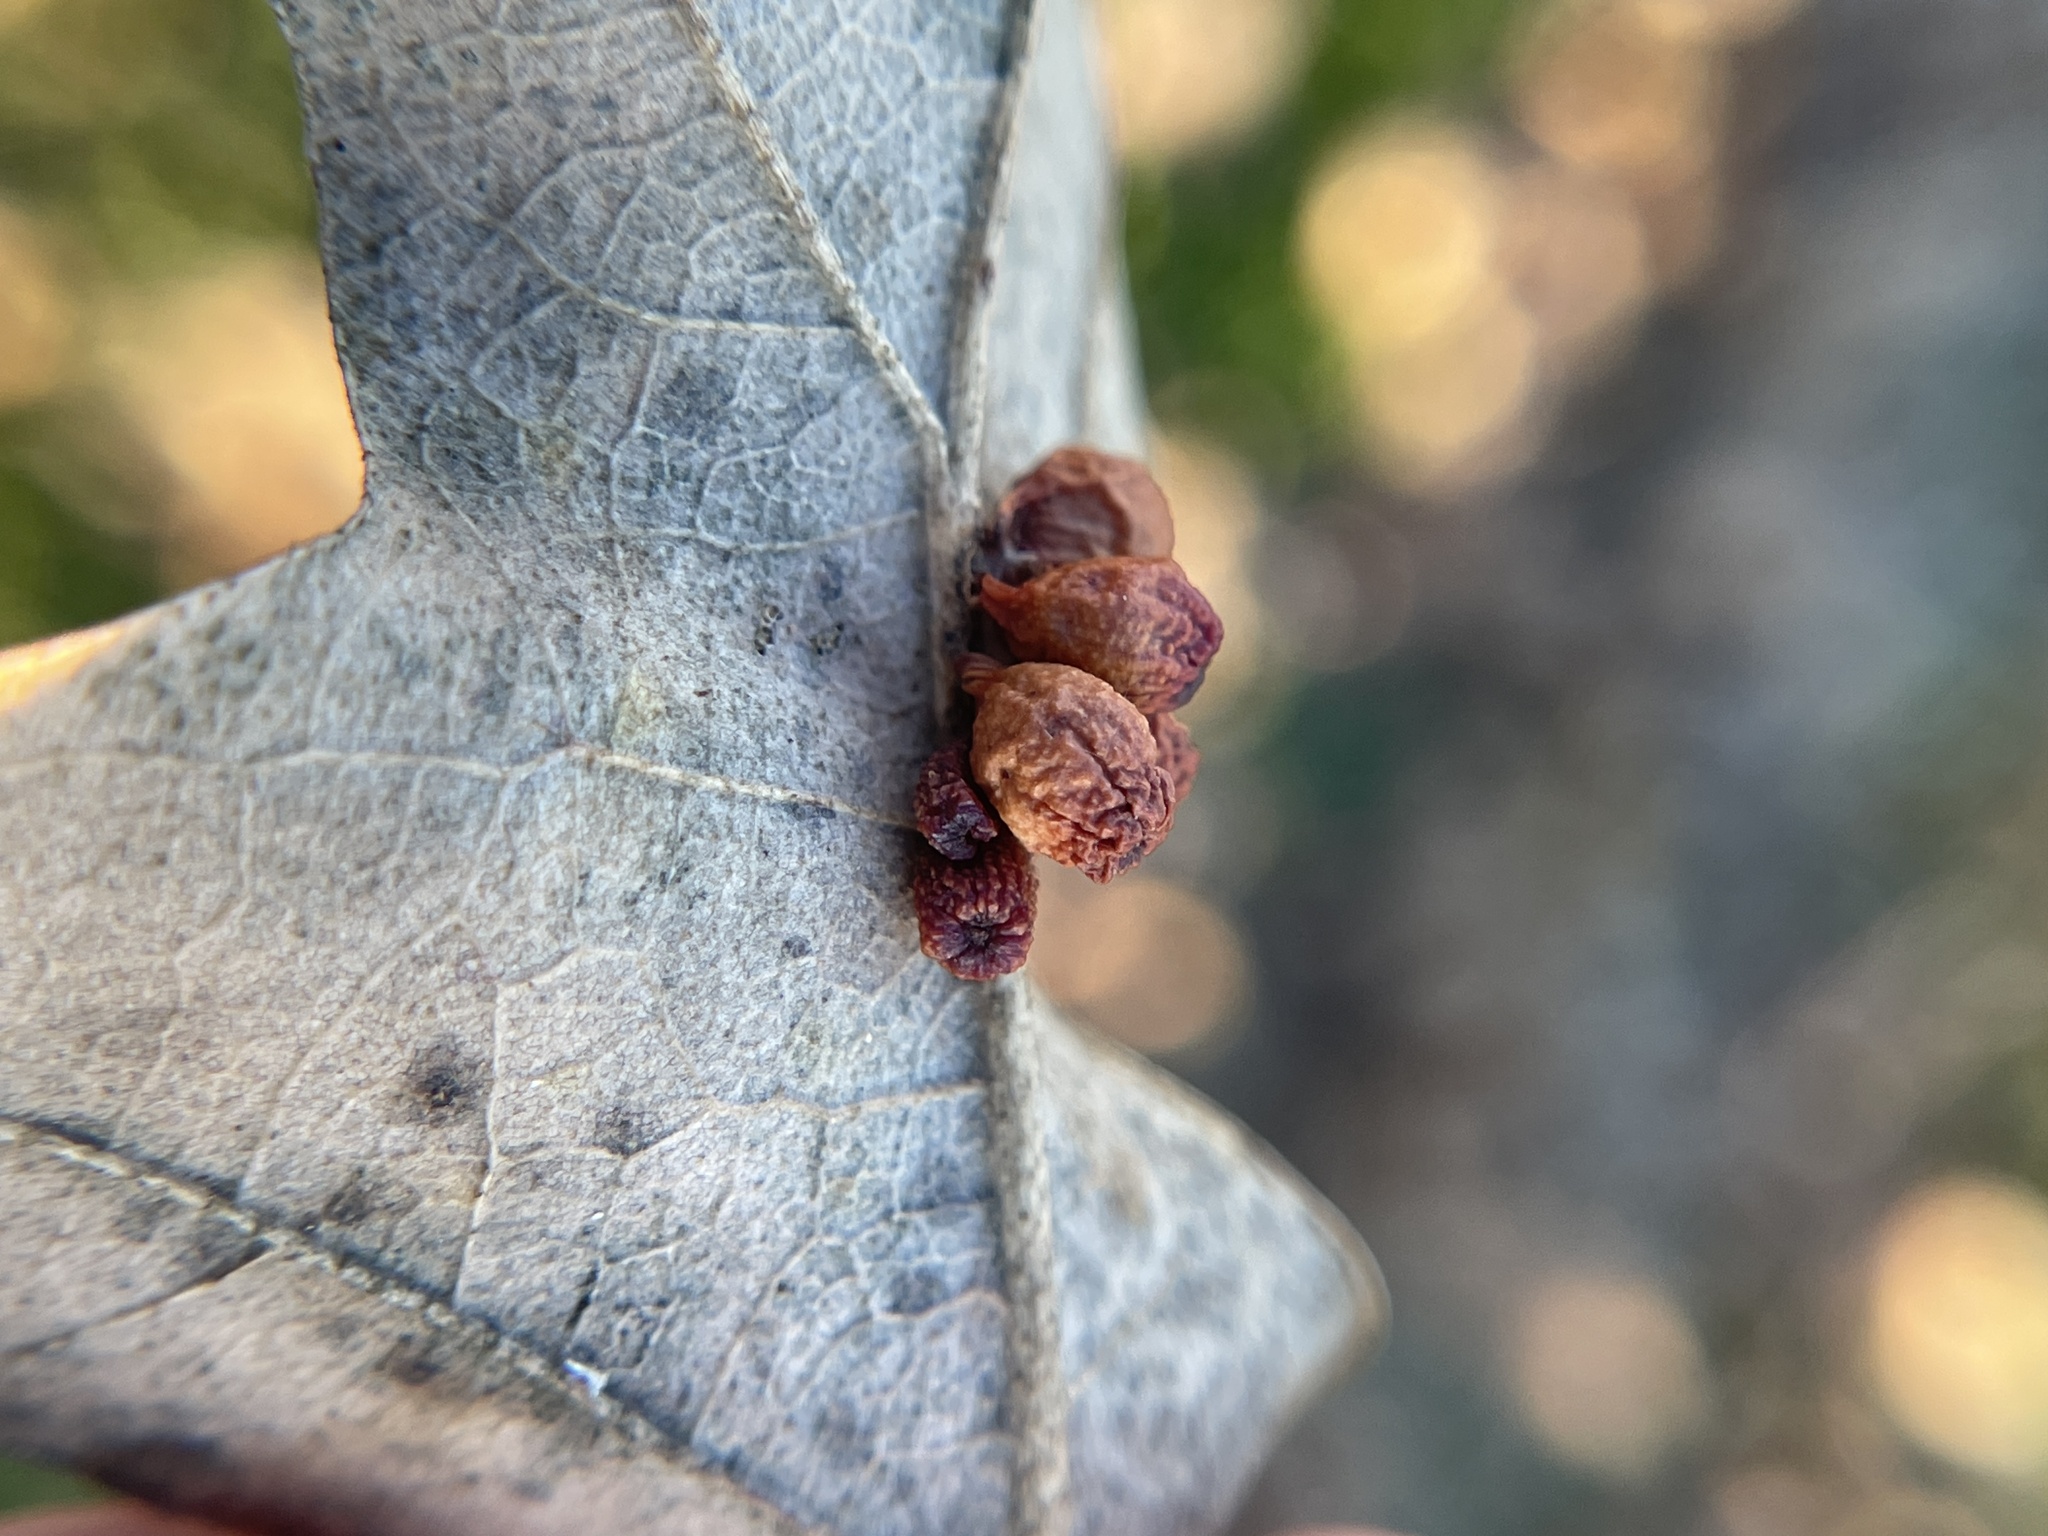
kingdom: Animalia
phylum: Arthropoda
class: Insecta
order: Hymenoptera
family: Cynipidae
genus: Andricus
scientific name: Andricus lustrans
